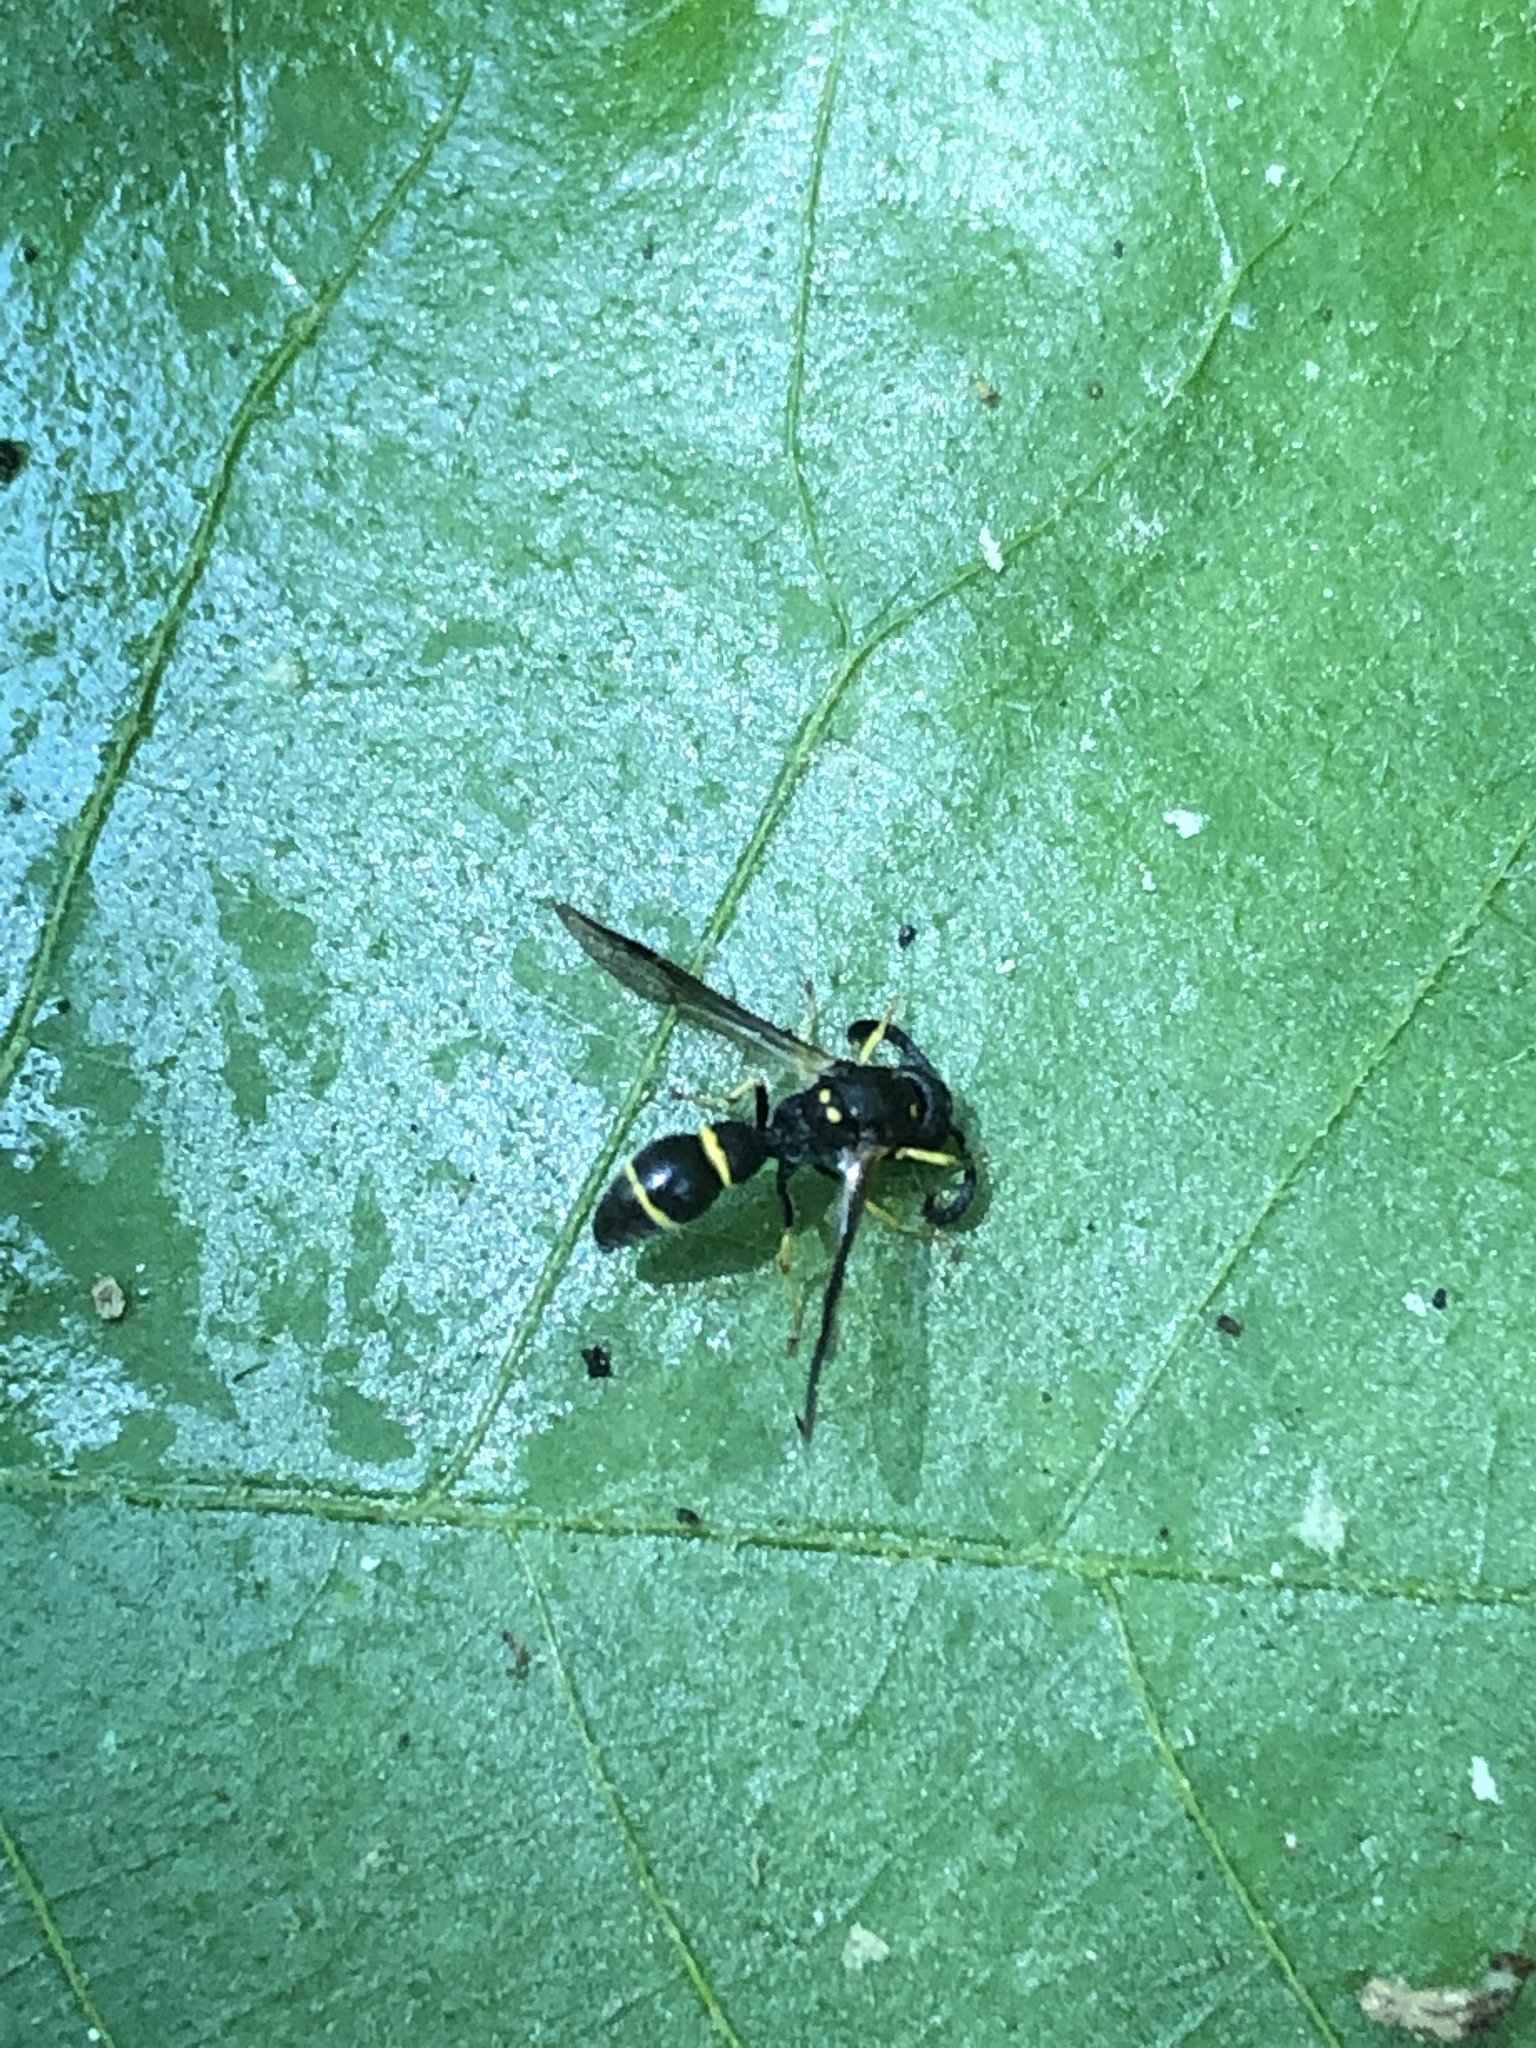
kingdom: Animalia
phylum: Arthropoda
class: Insecta
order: Hymenoptera
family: Eumenidae
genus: Symmorphus
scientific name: Symmorphus
